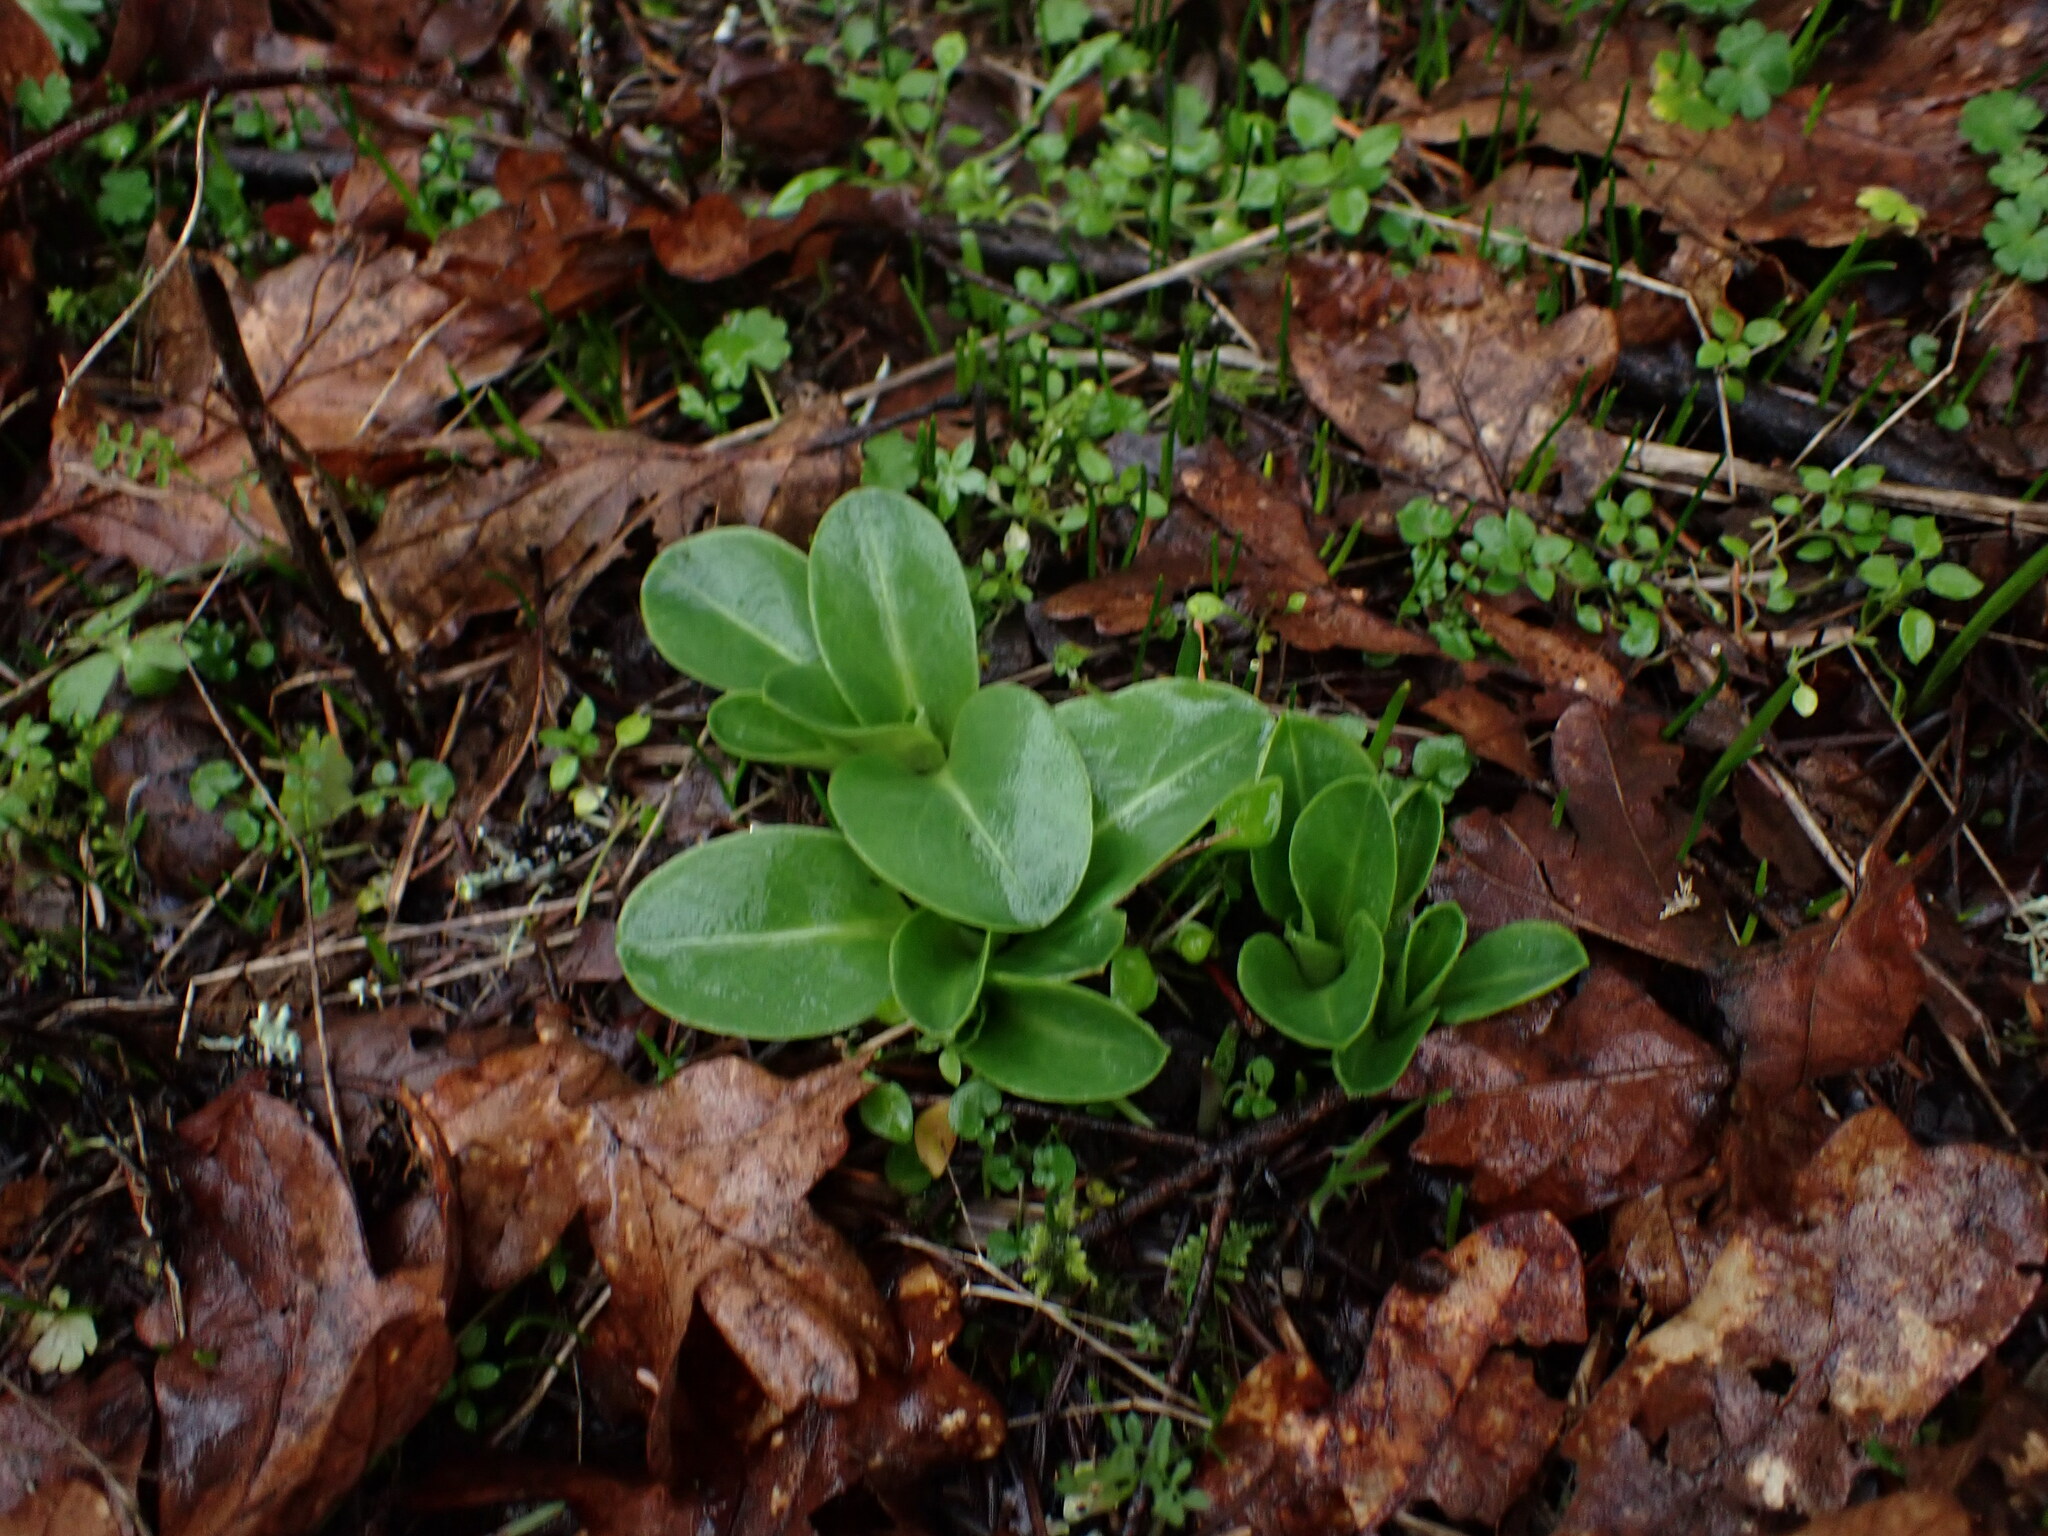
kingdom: Plantae
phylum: Tracheophyta
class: Magnoliopsida
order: Ericales
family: Primulaceae
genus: Dodecatheon
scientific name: Dodecatheon hendersonii
